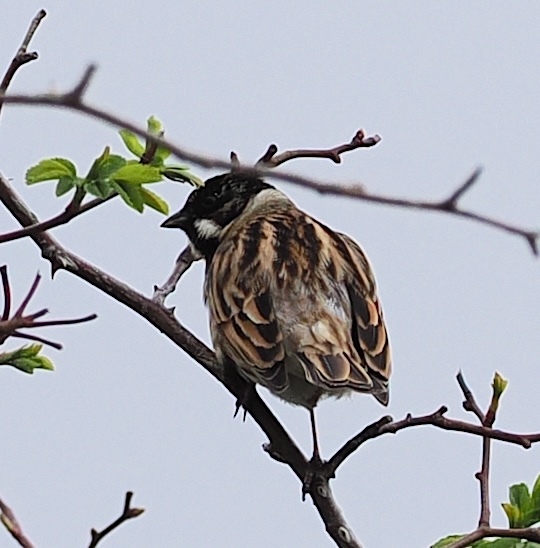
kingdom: Animalia
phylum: Chordata
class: Aves
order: Passeriformes
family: Emberizidae
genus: Emberiza
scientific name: Emberiza schoeniclus
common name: Reed bunting
